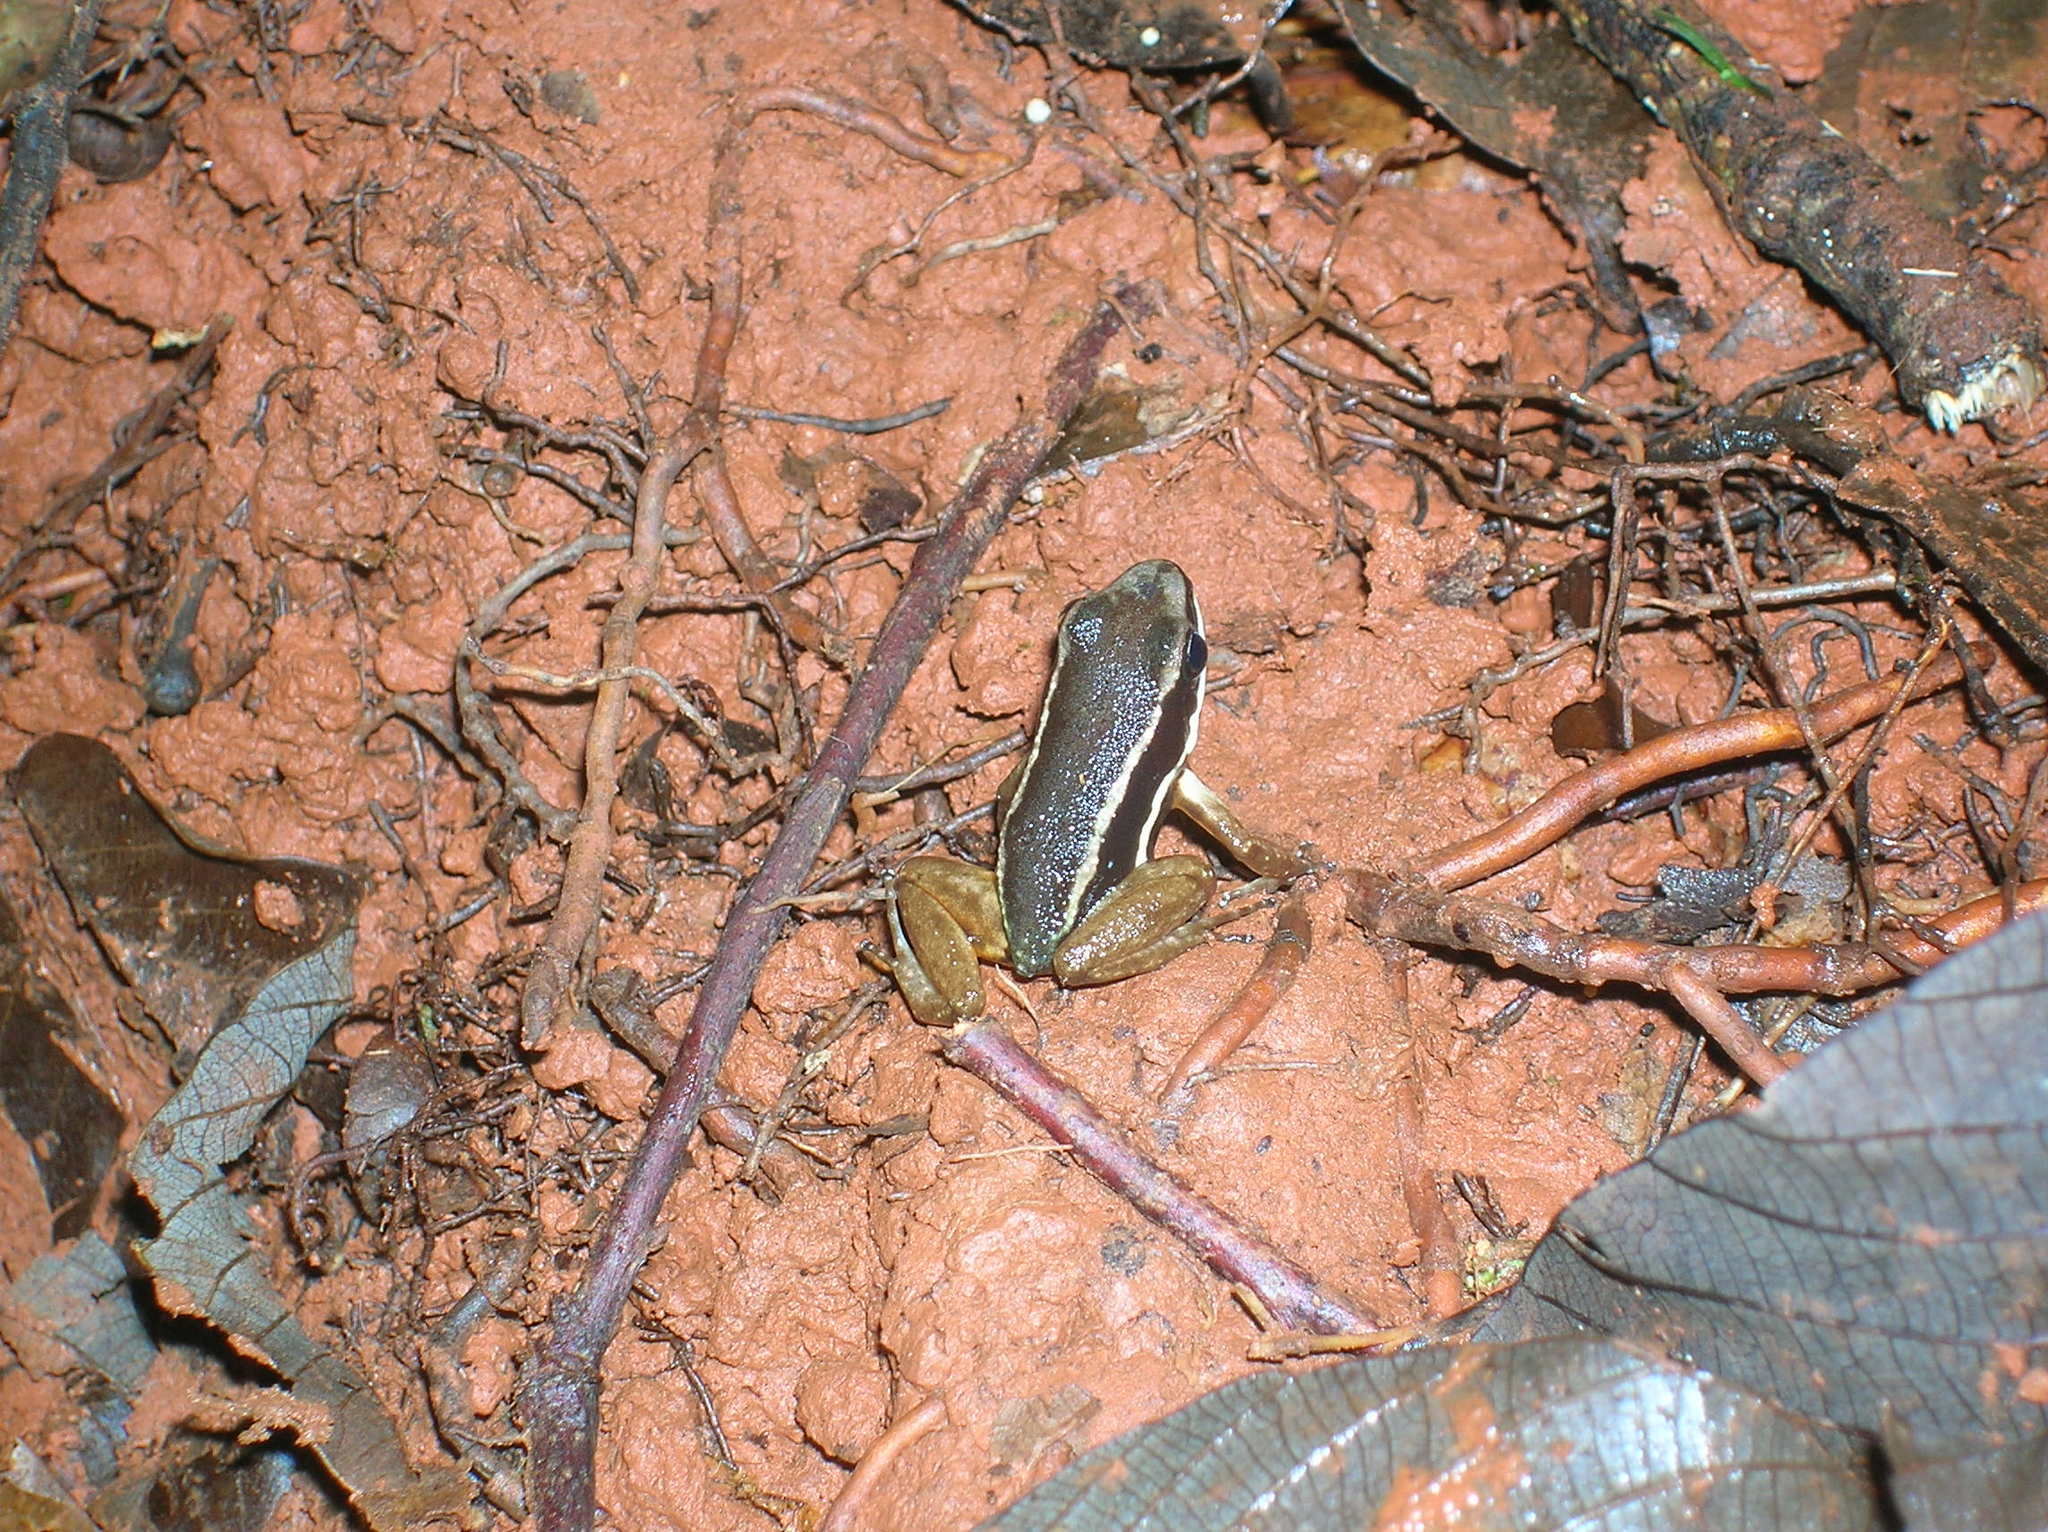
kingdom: Animalia
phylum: Chordata
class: Amphibia
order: Anura
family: Dendrobatidae
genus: Silverstoneia
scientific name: Silverstoneia flotator
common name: Rainforest rocket frog
